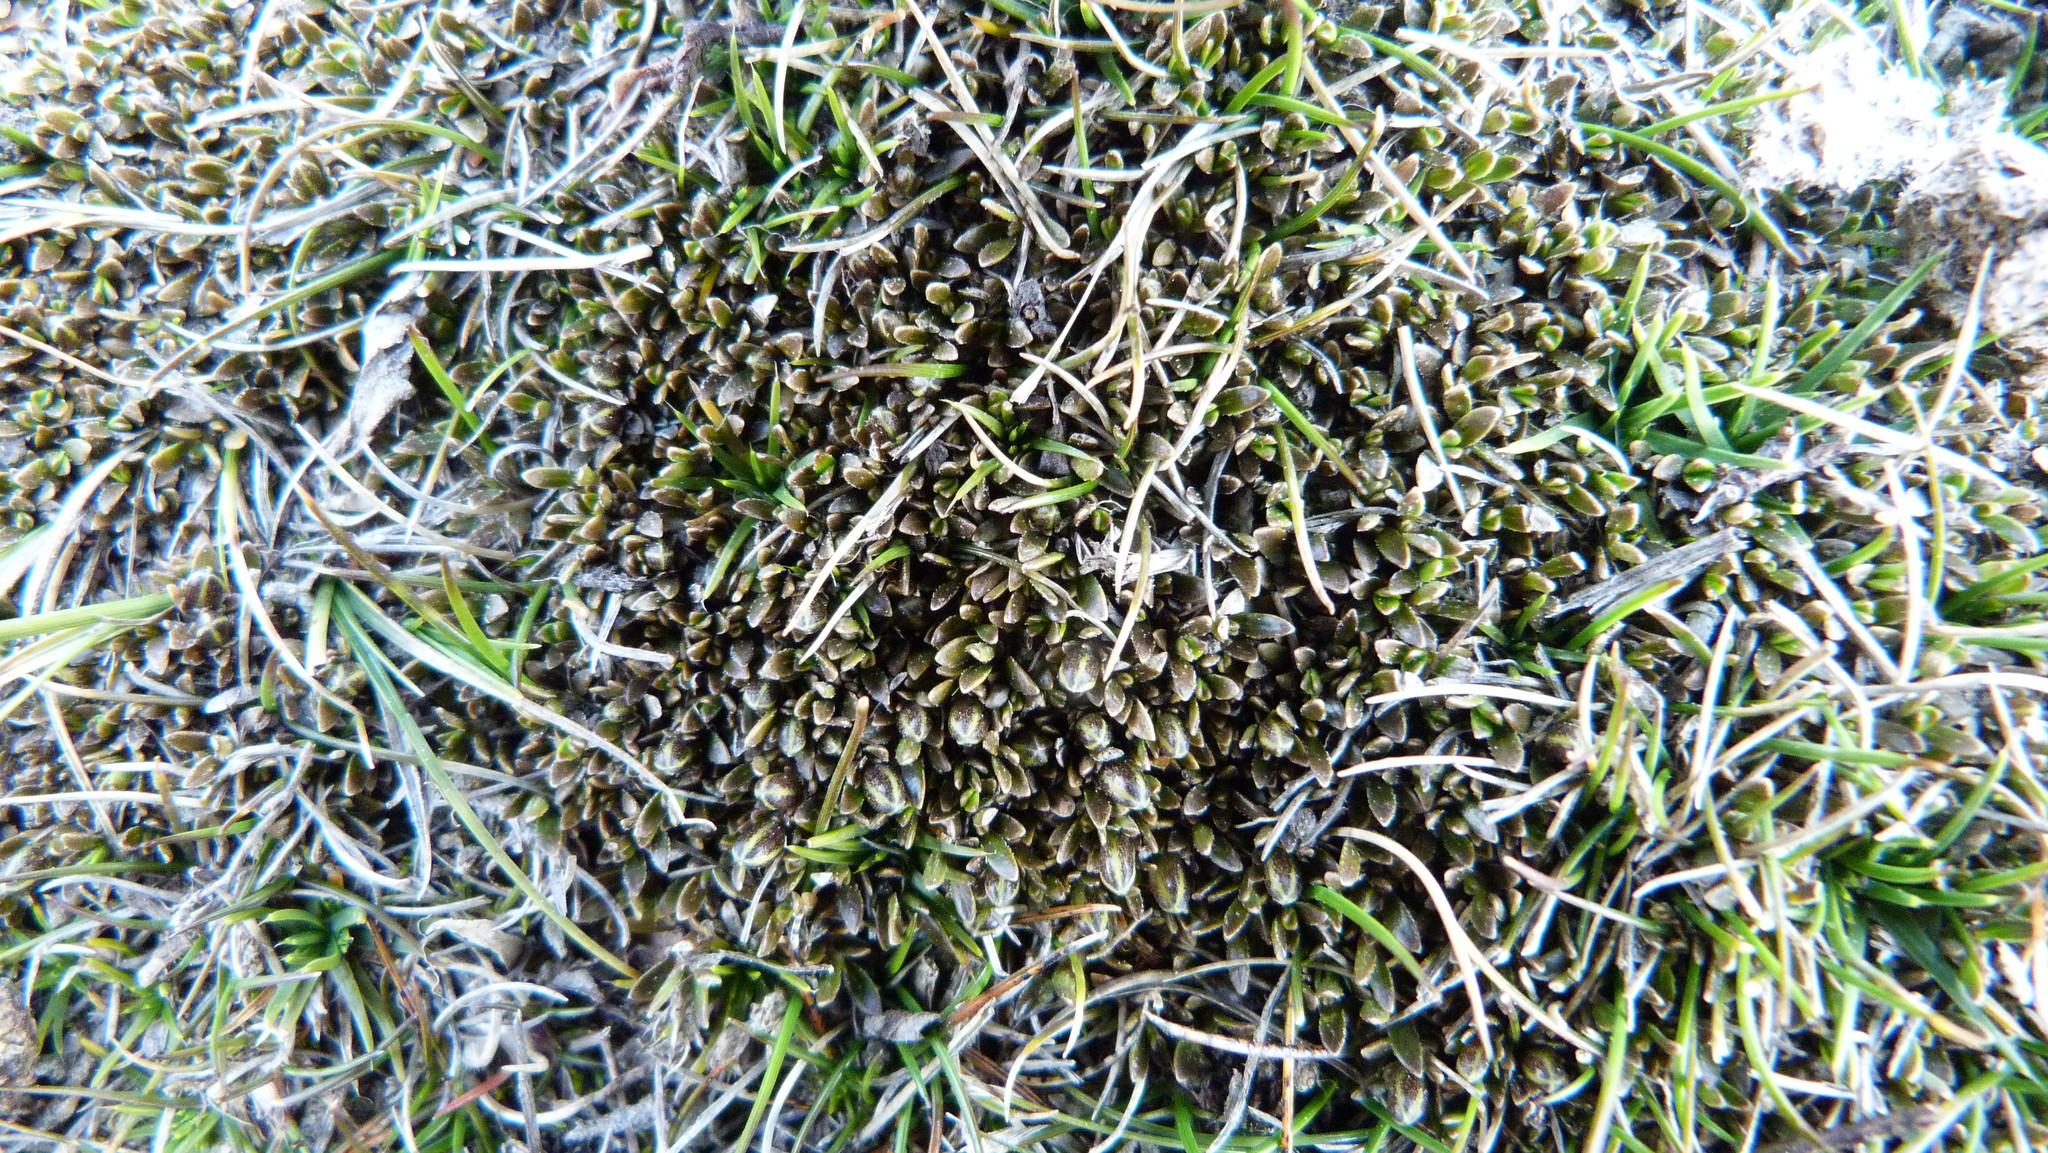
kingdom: Plantae
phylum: Tracheophyta
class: Magnoliopsida
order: Gentianales
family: Rubiaceae
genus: Coprosma
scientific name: Coprosma atropurpurea
